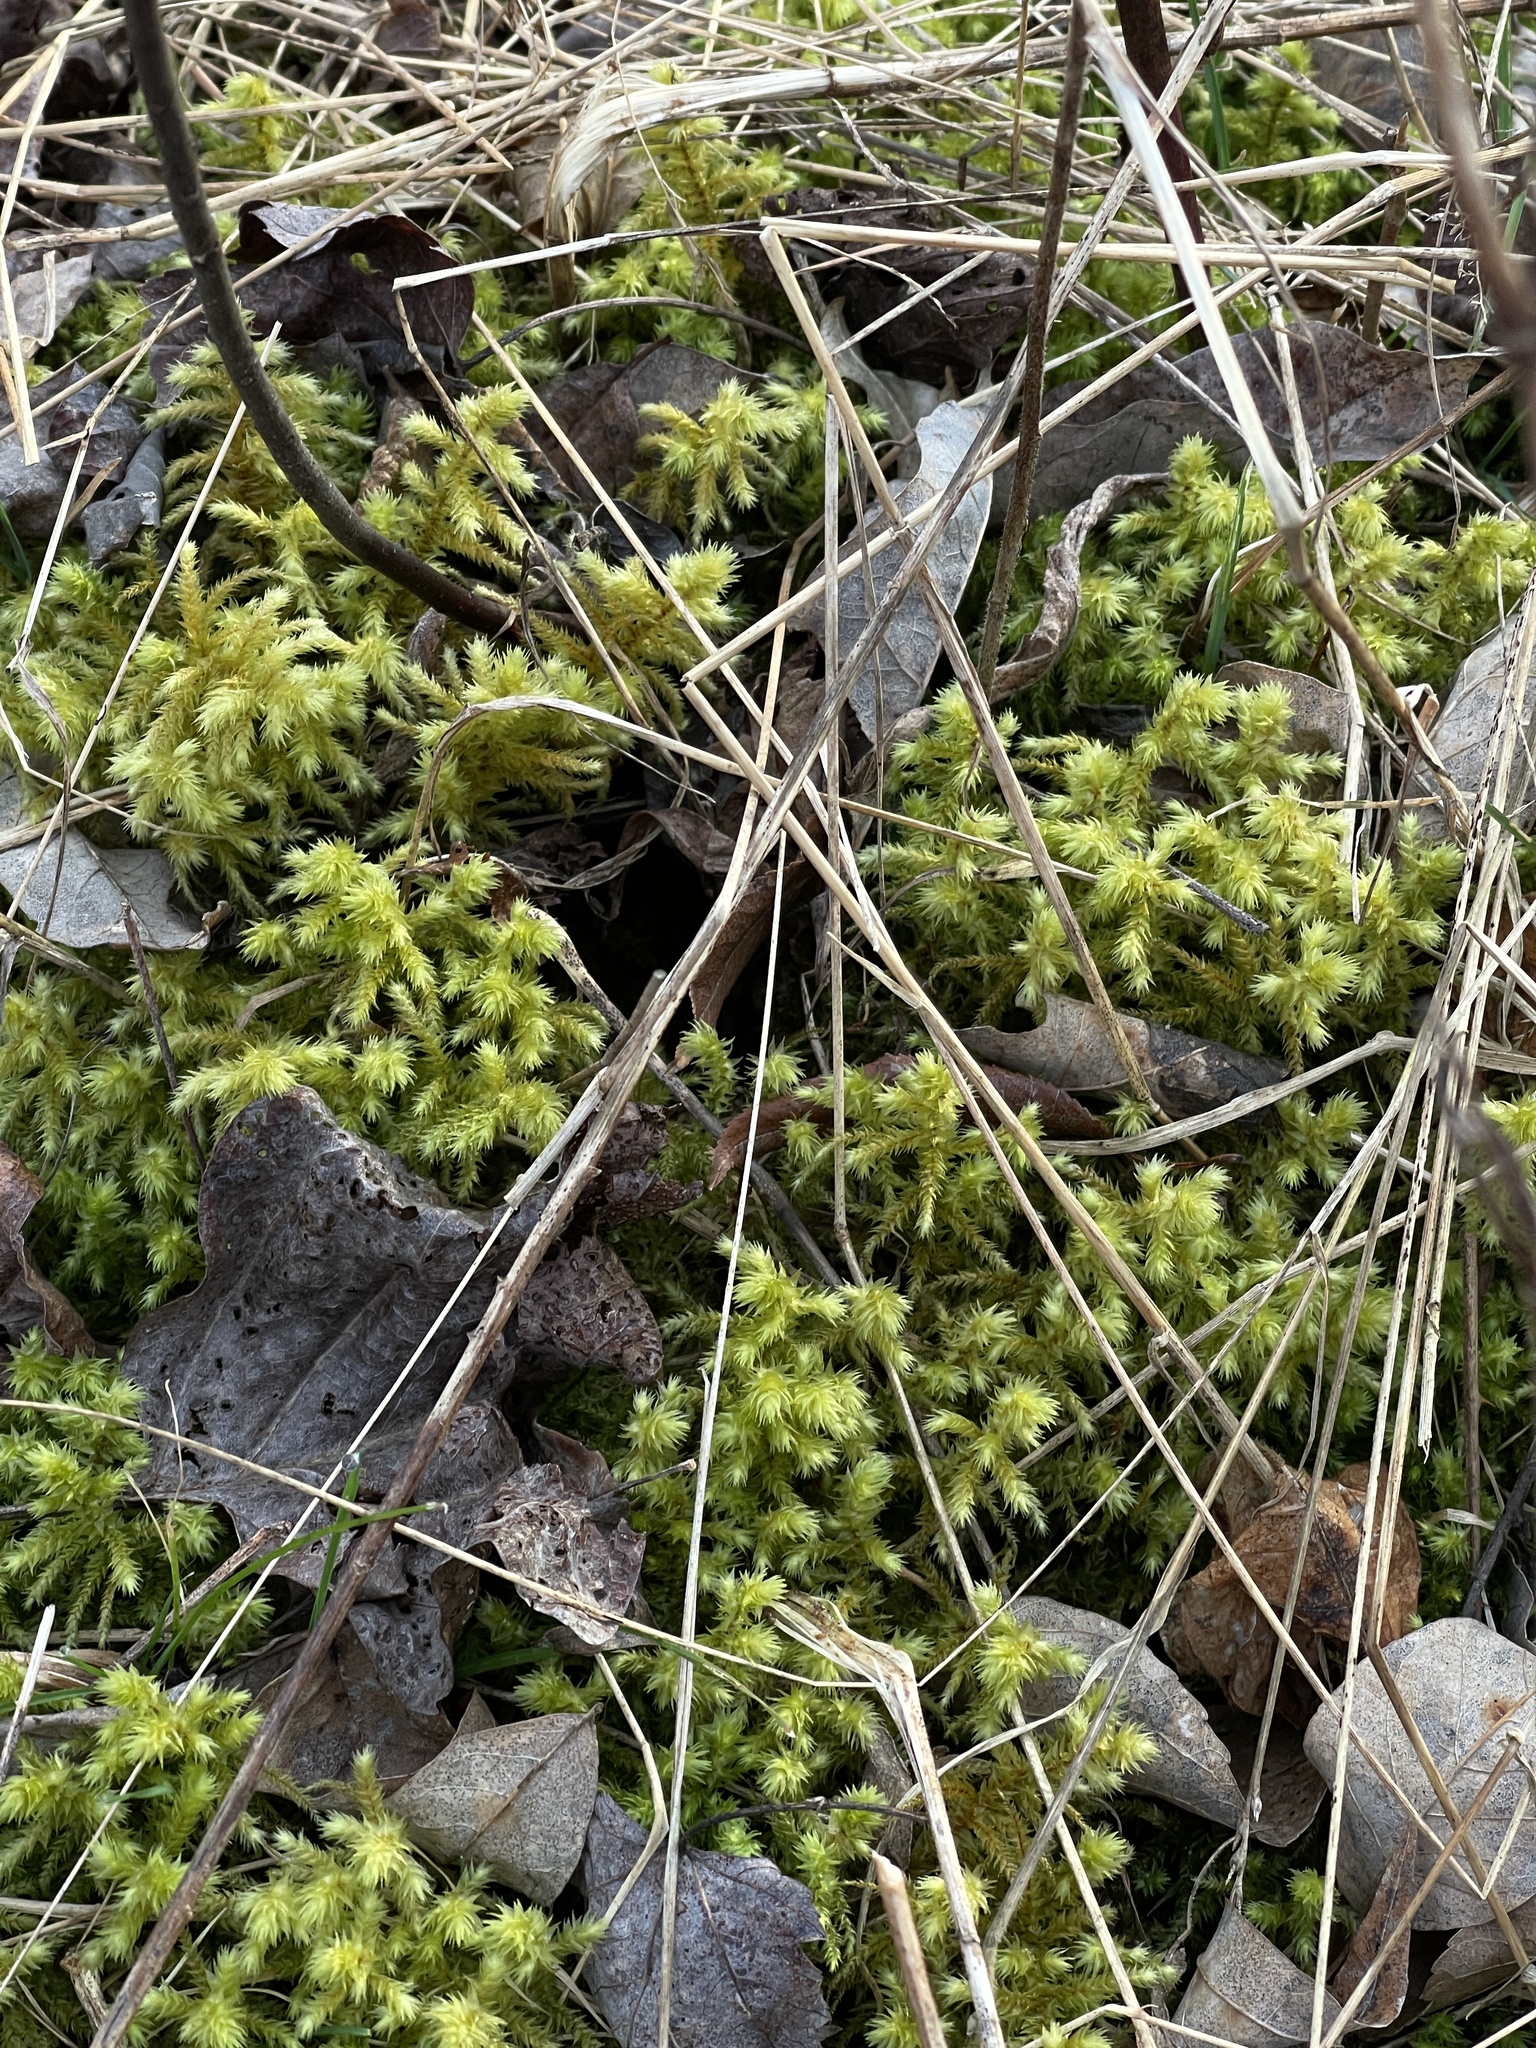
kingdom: Plantae
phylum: Bryophyta
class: Bryopsida
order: Hypnales
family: Hylocomiaceae
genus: Hylocomiadelphus
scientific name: Hylocomiadelphus triquetrus
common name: Rough goose neck moss
